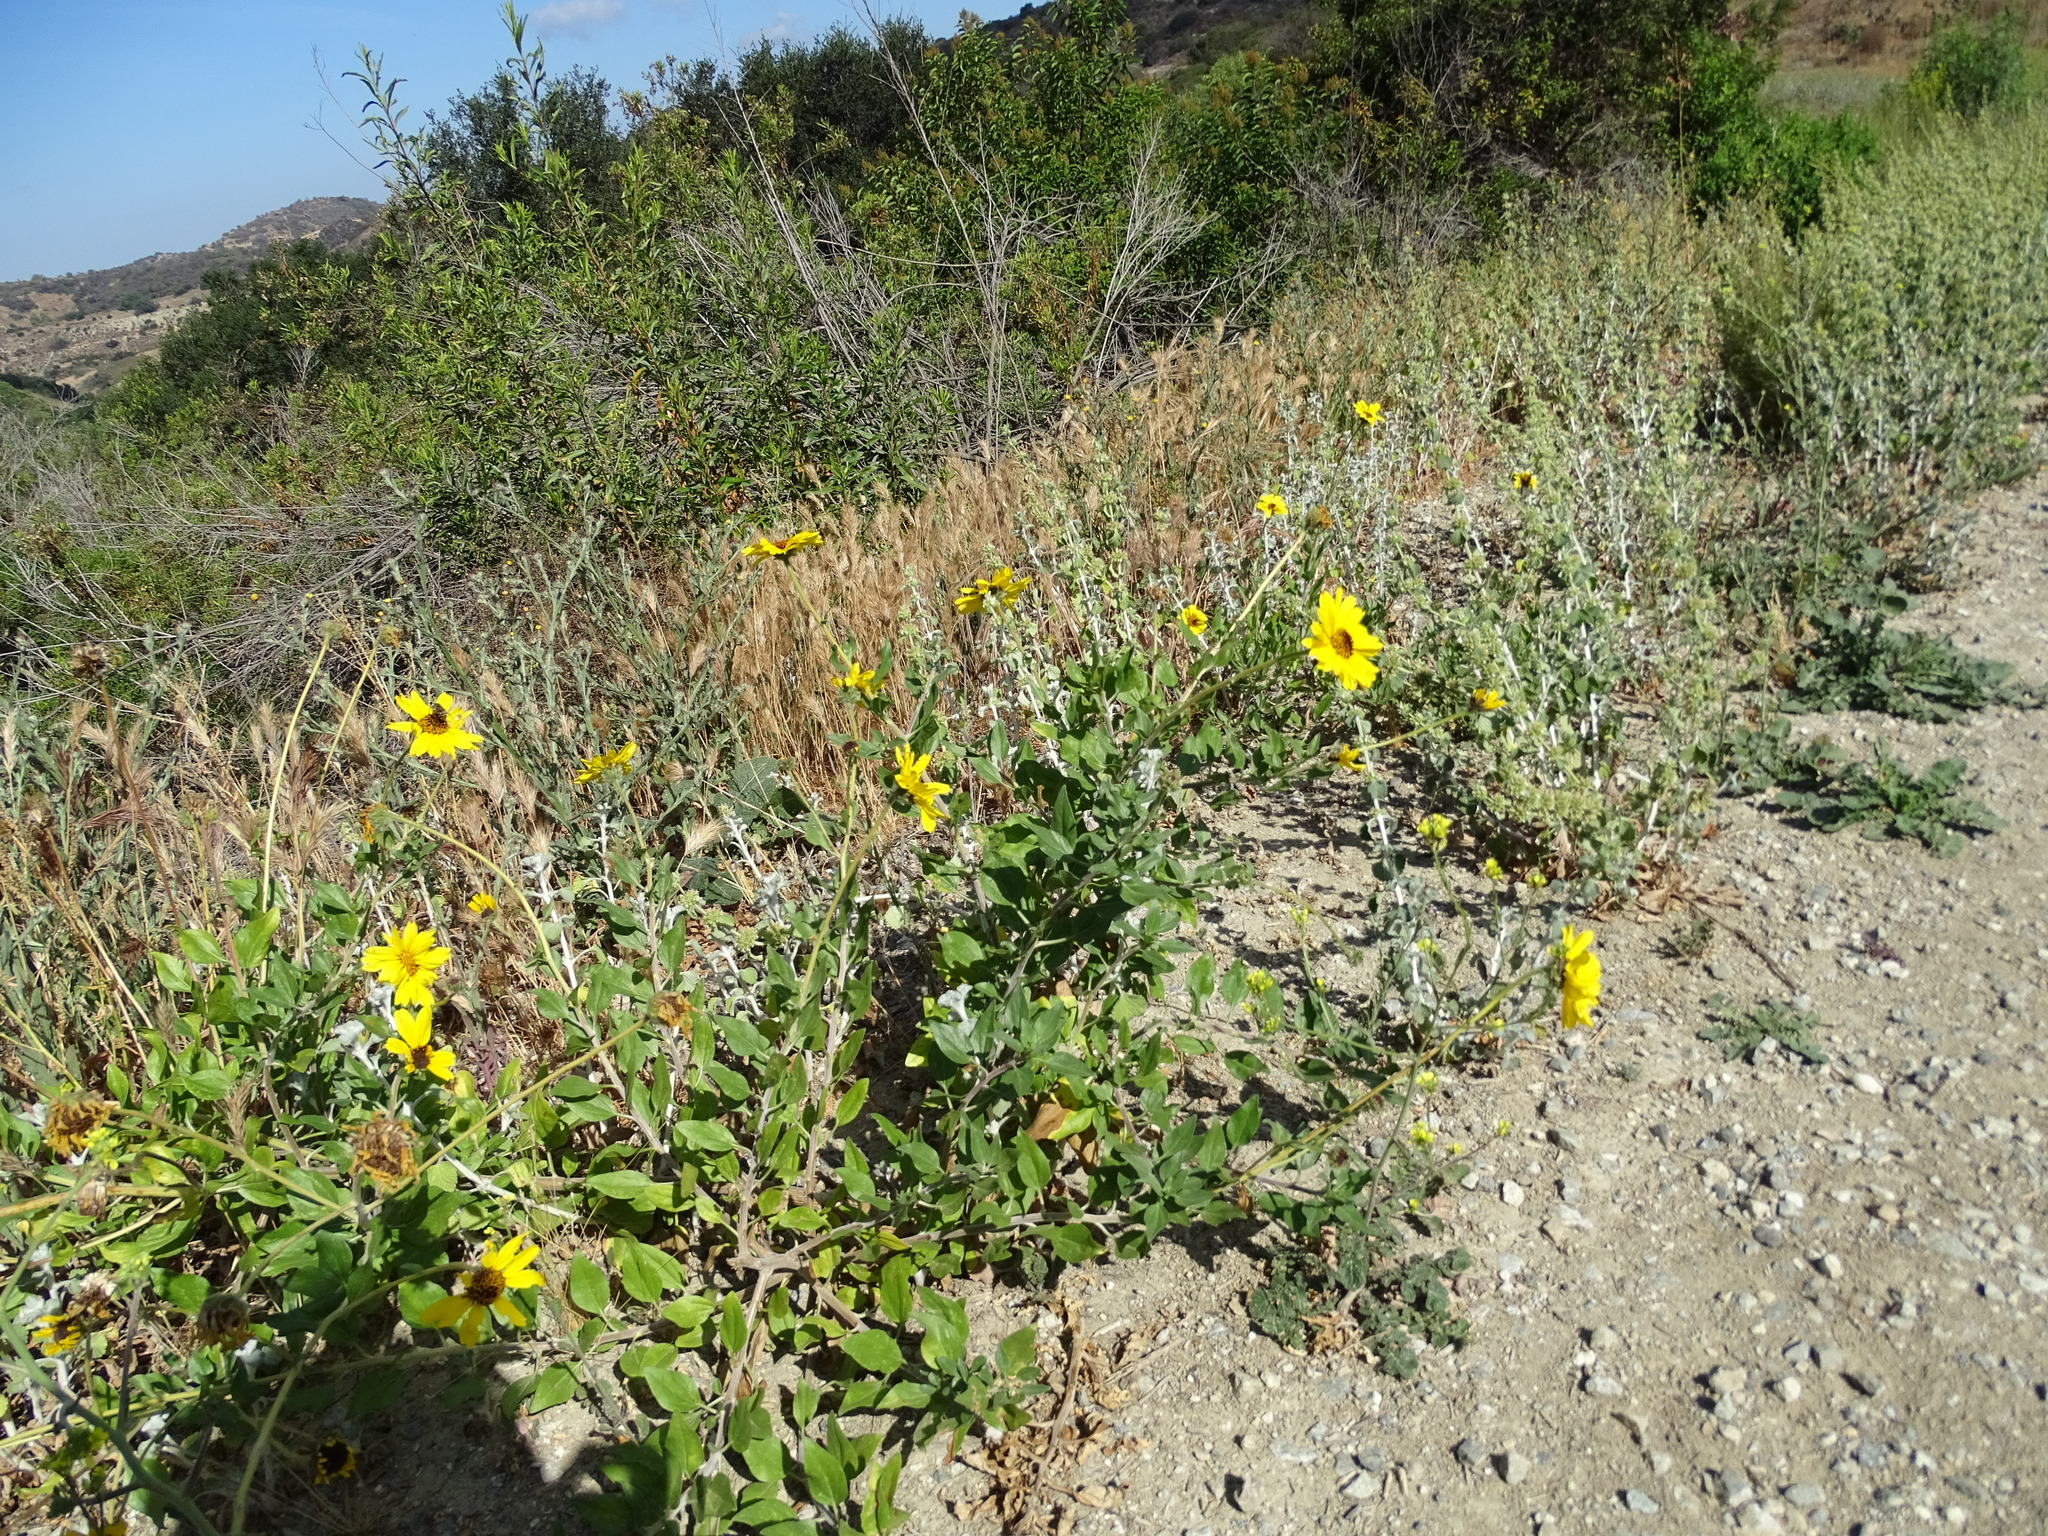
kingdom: Plantae
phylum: Tracheophyta
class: Magnoliopsida
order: Asterales
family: Asteraceae
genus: Encelia
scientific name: Encelia californica
